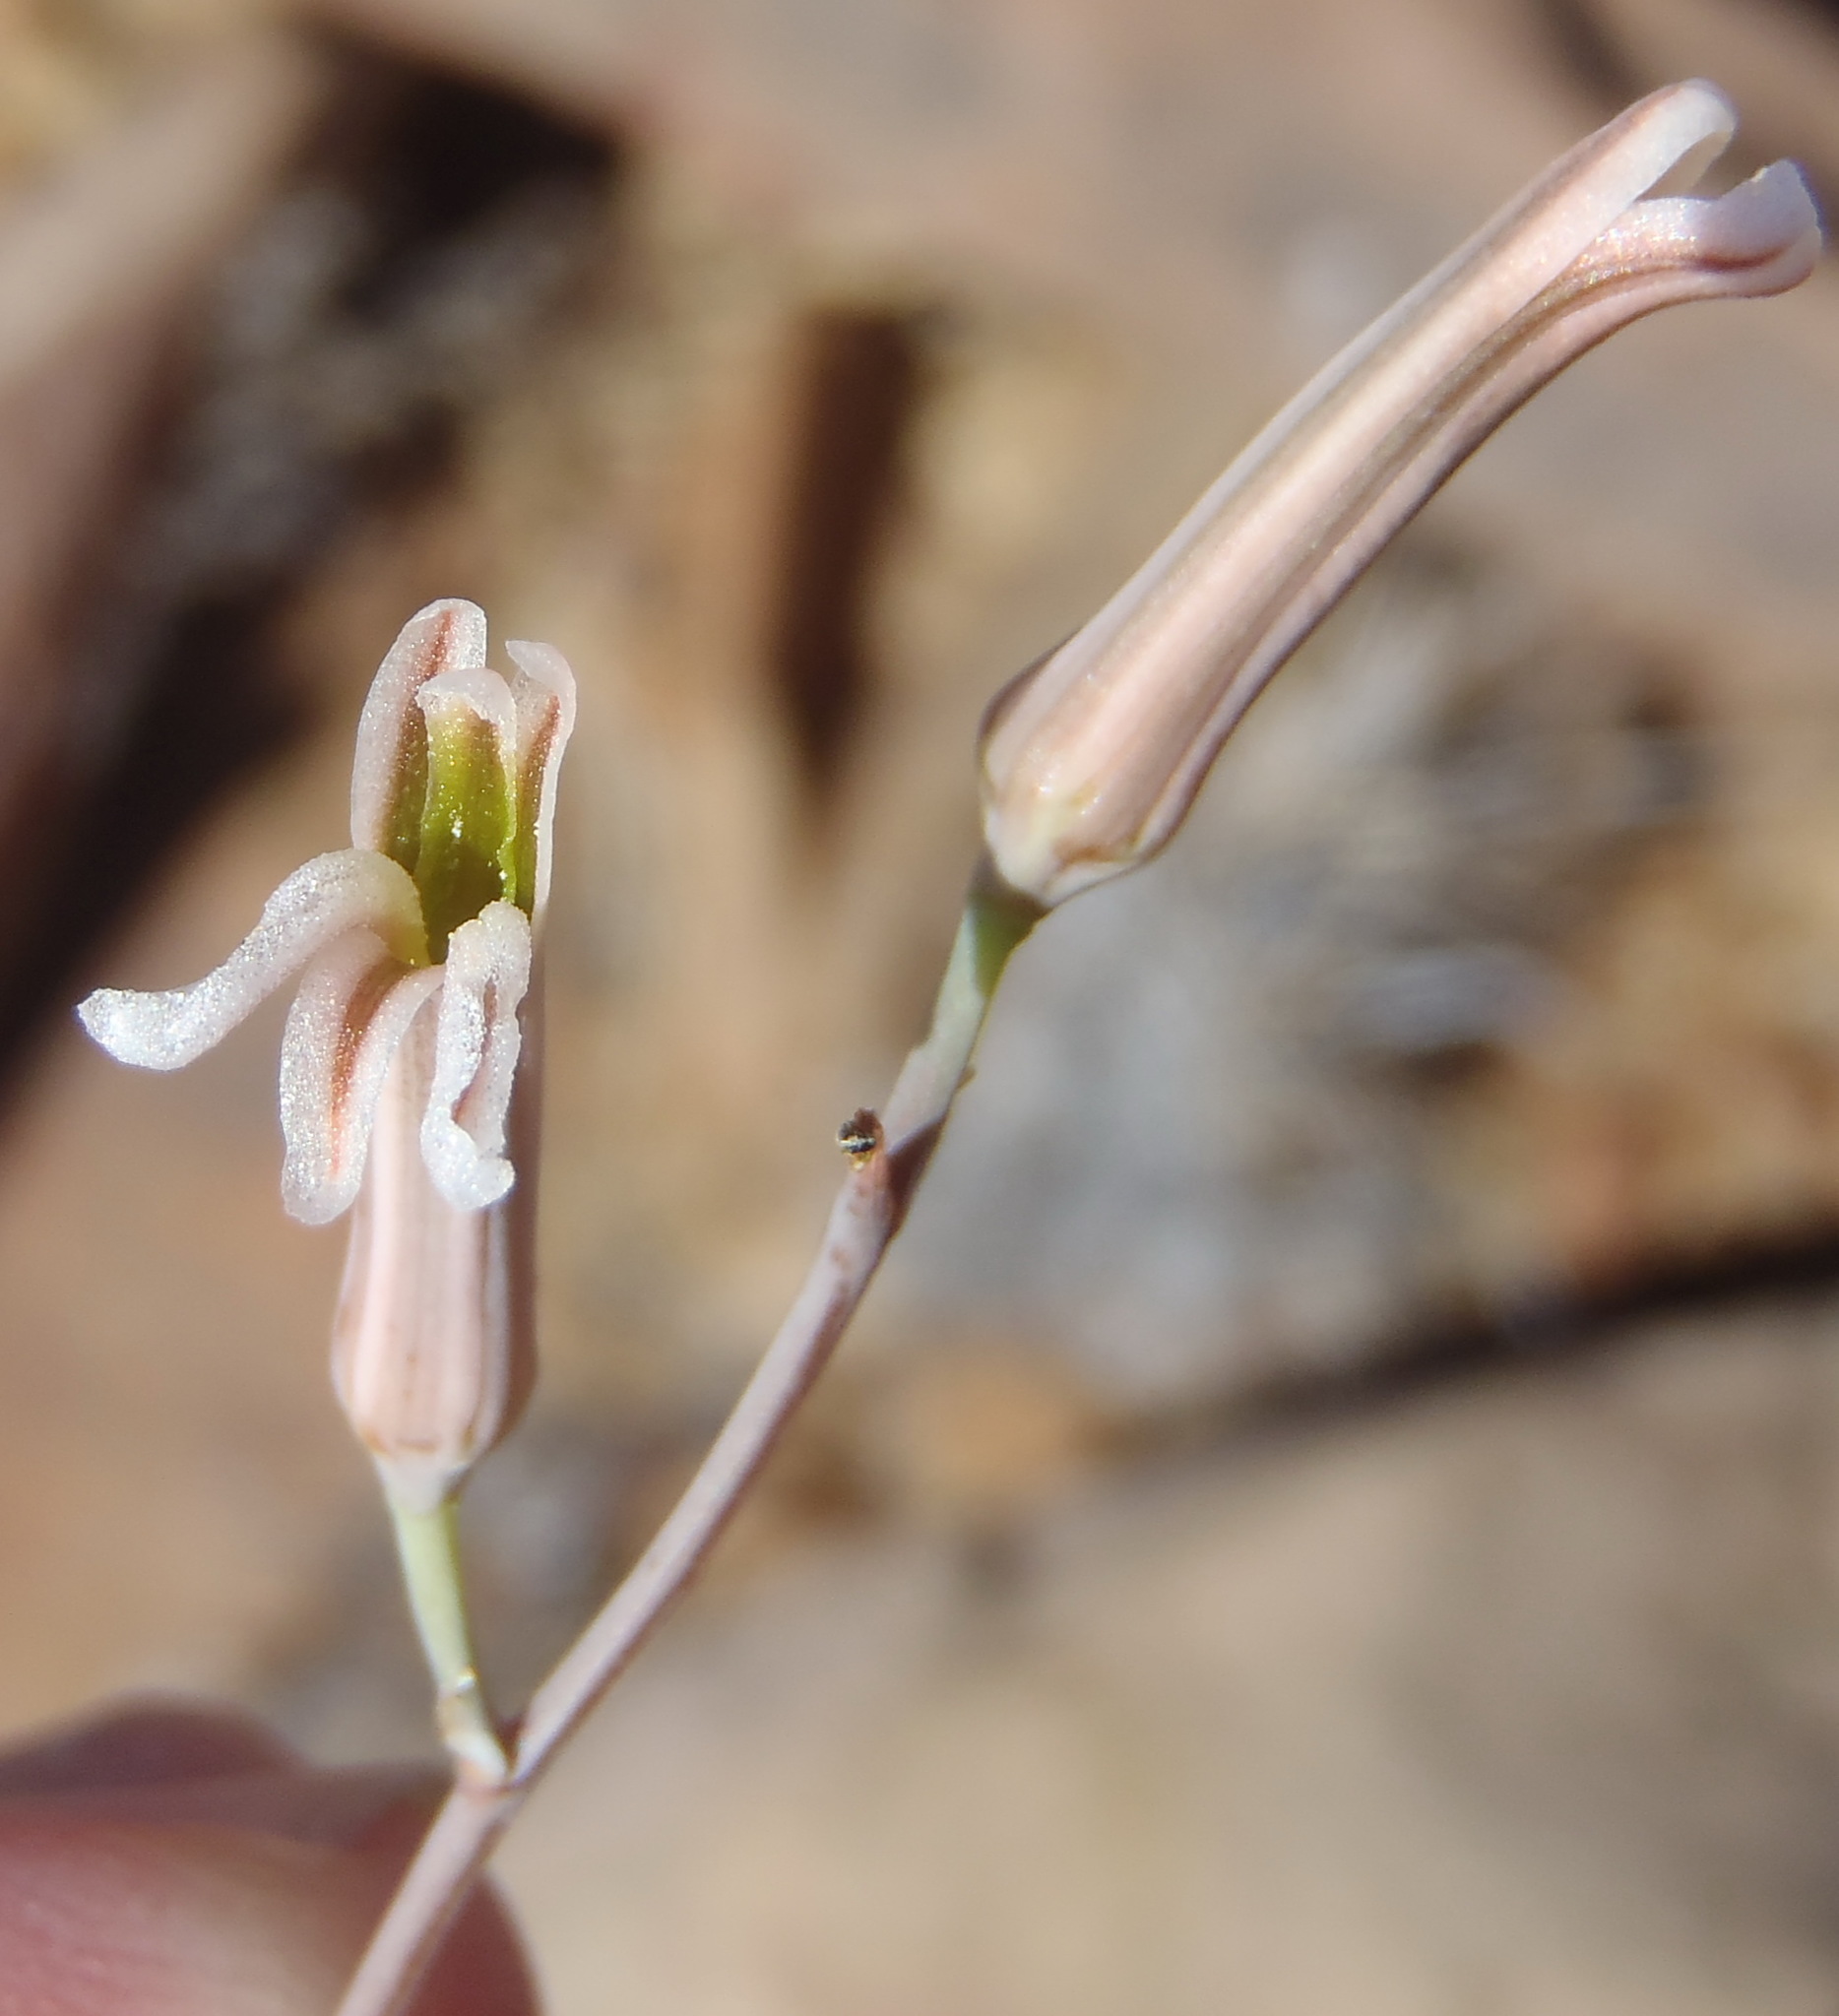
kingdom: Plantae
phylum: Tracheophyta
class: Liliopsida
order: Asparagales
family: Asphodelaceae
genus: Haworthiopsis
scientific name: Haworthiopsis viscosa
